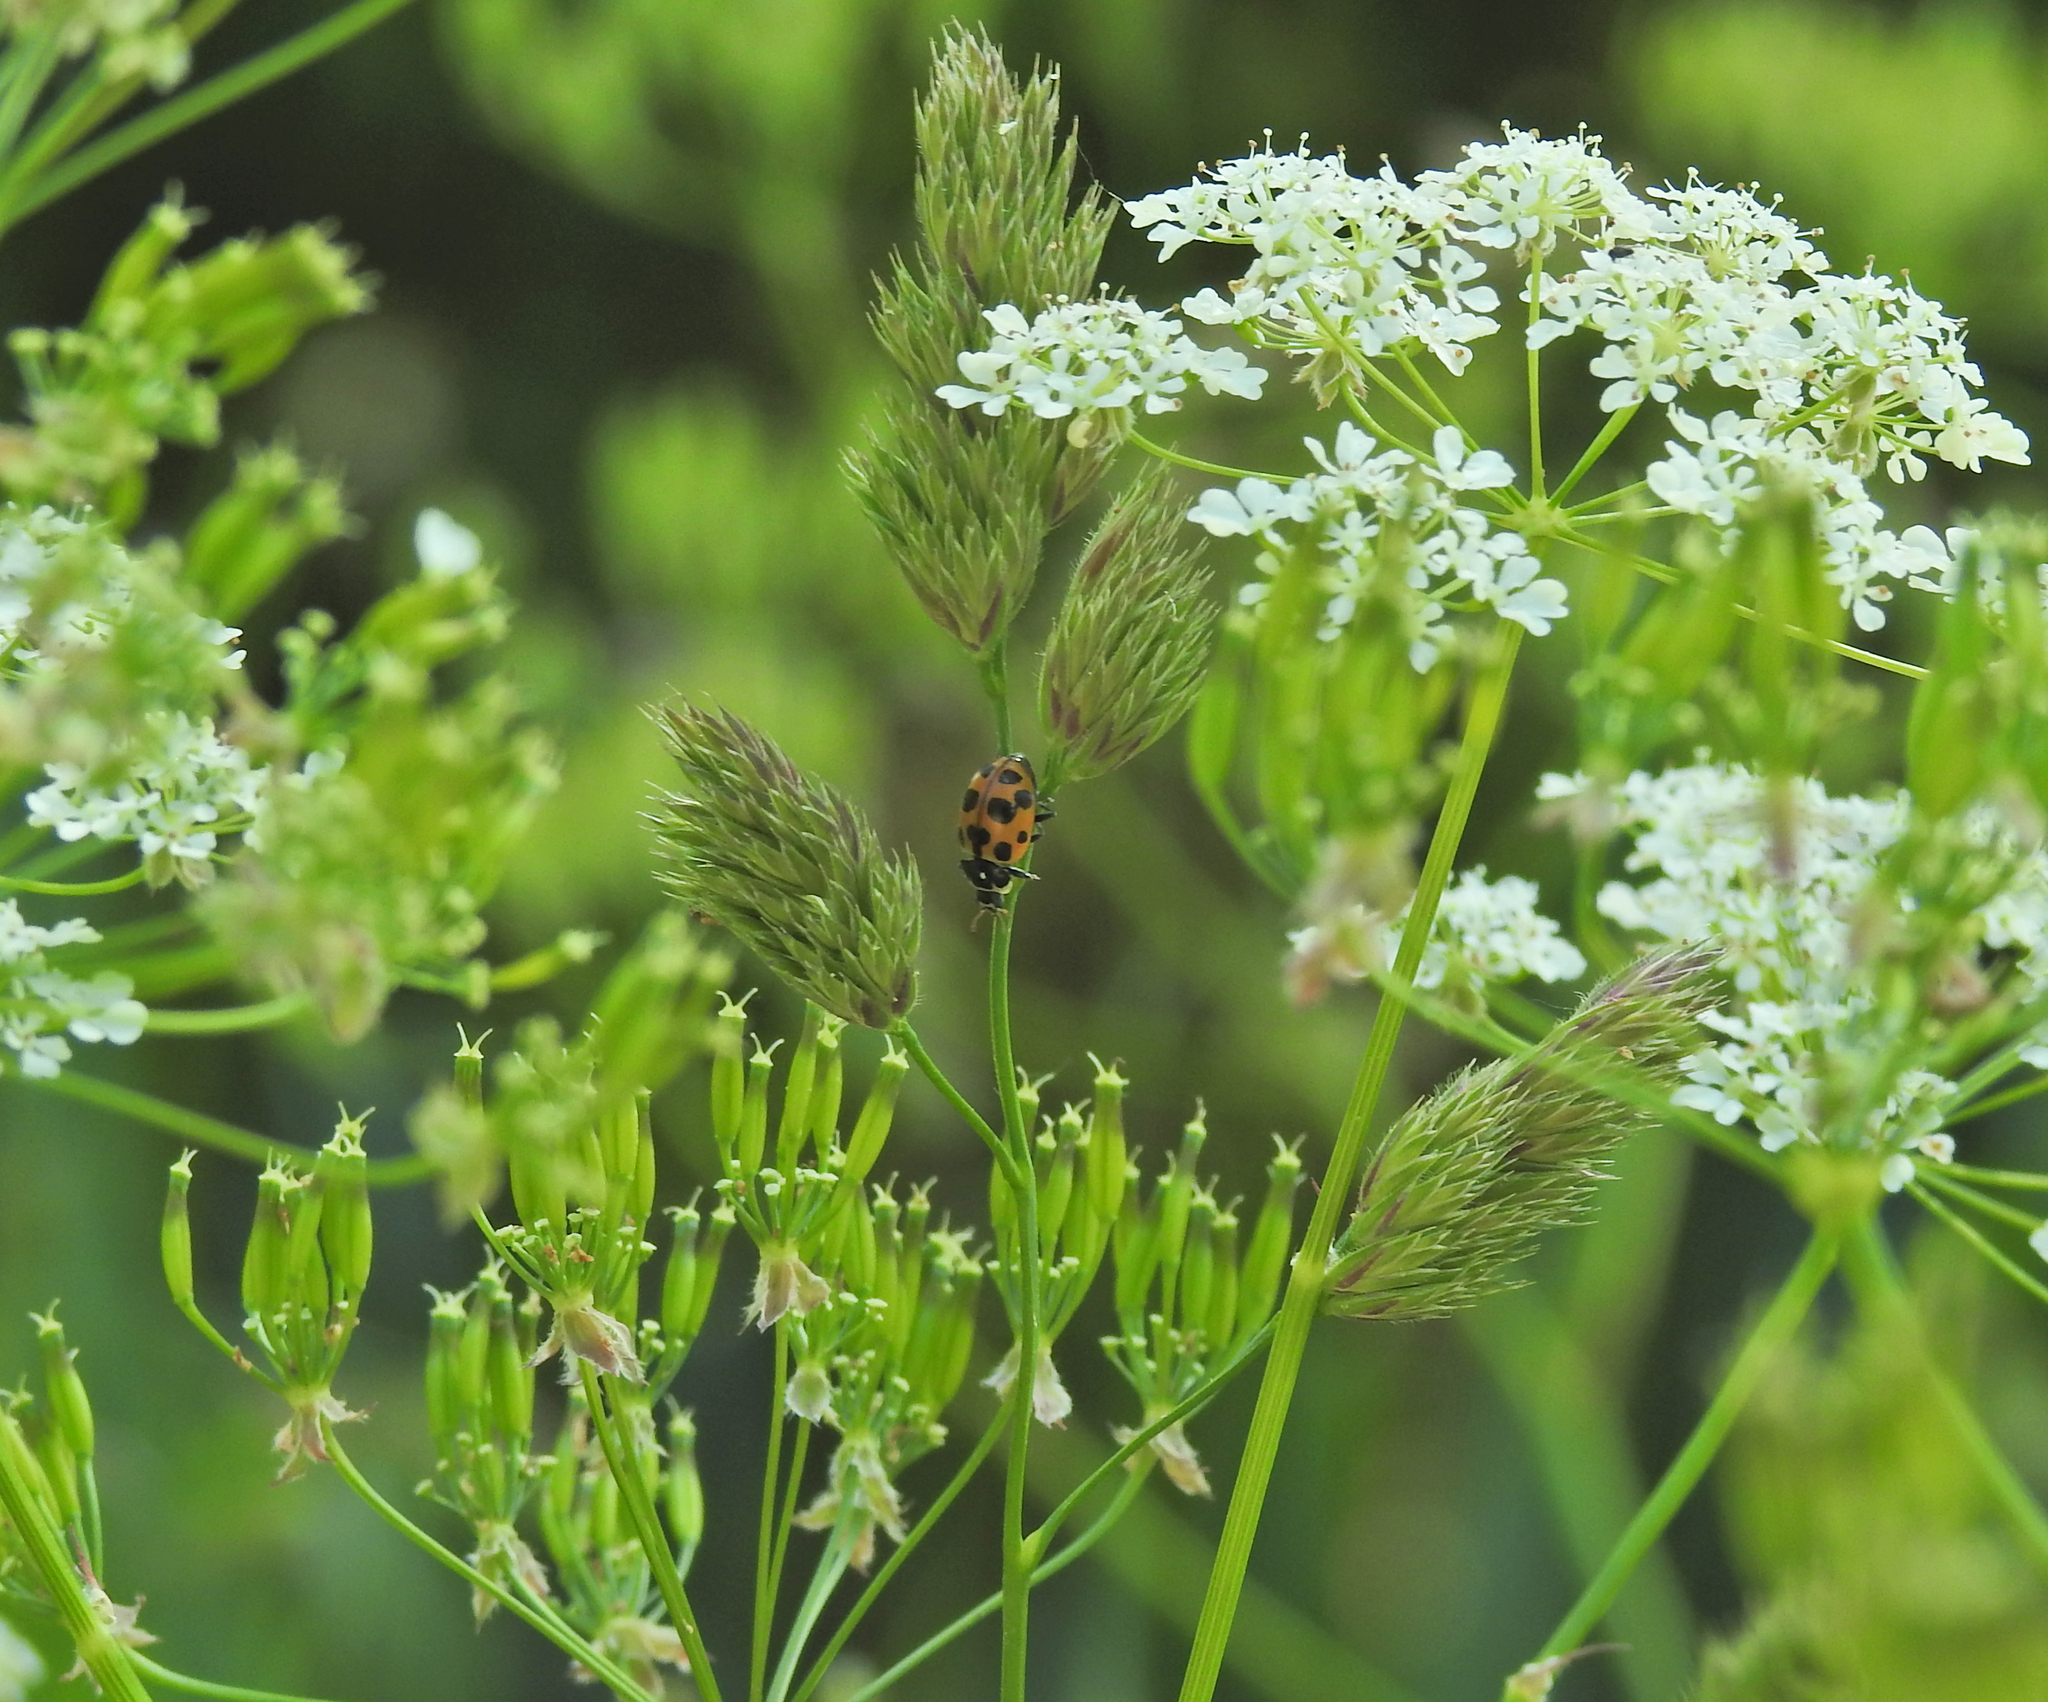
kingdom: Animalia
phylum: Arthropoda
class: Insecta
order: Coleoptera
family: Coccinellidae
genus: Ceratomegilla
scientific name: Ceratomegilla notata
